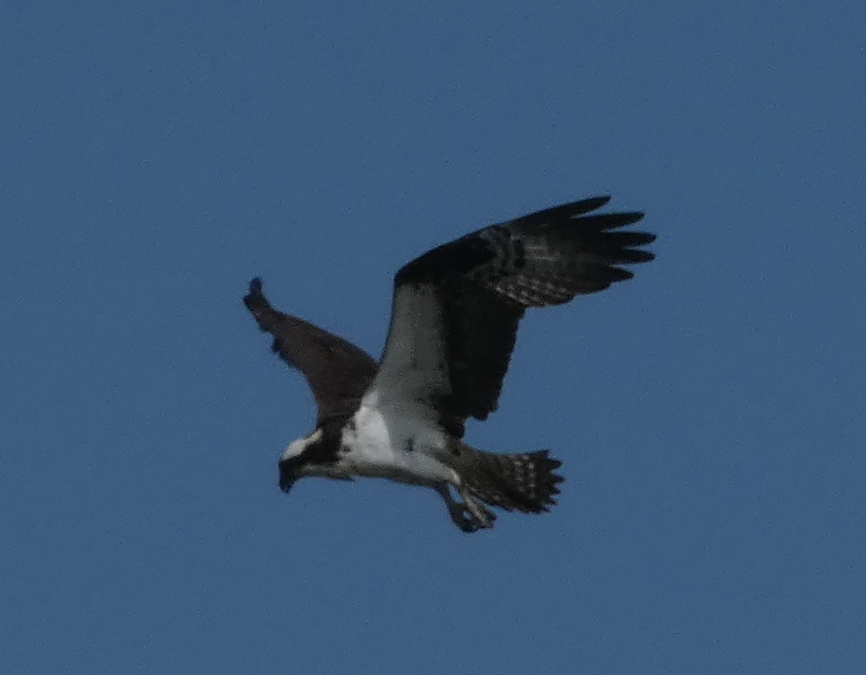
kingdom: Animalia
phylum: Chordata
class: Aves
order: Accipitriformes
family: Pandionidae
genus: Pandion
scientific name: Pandion haliaetus
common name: Osprey
